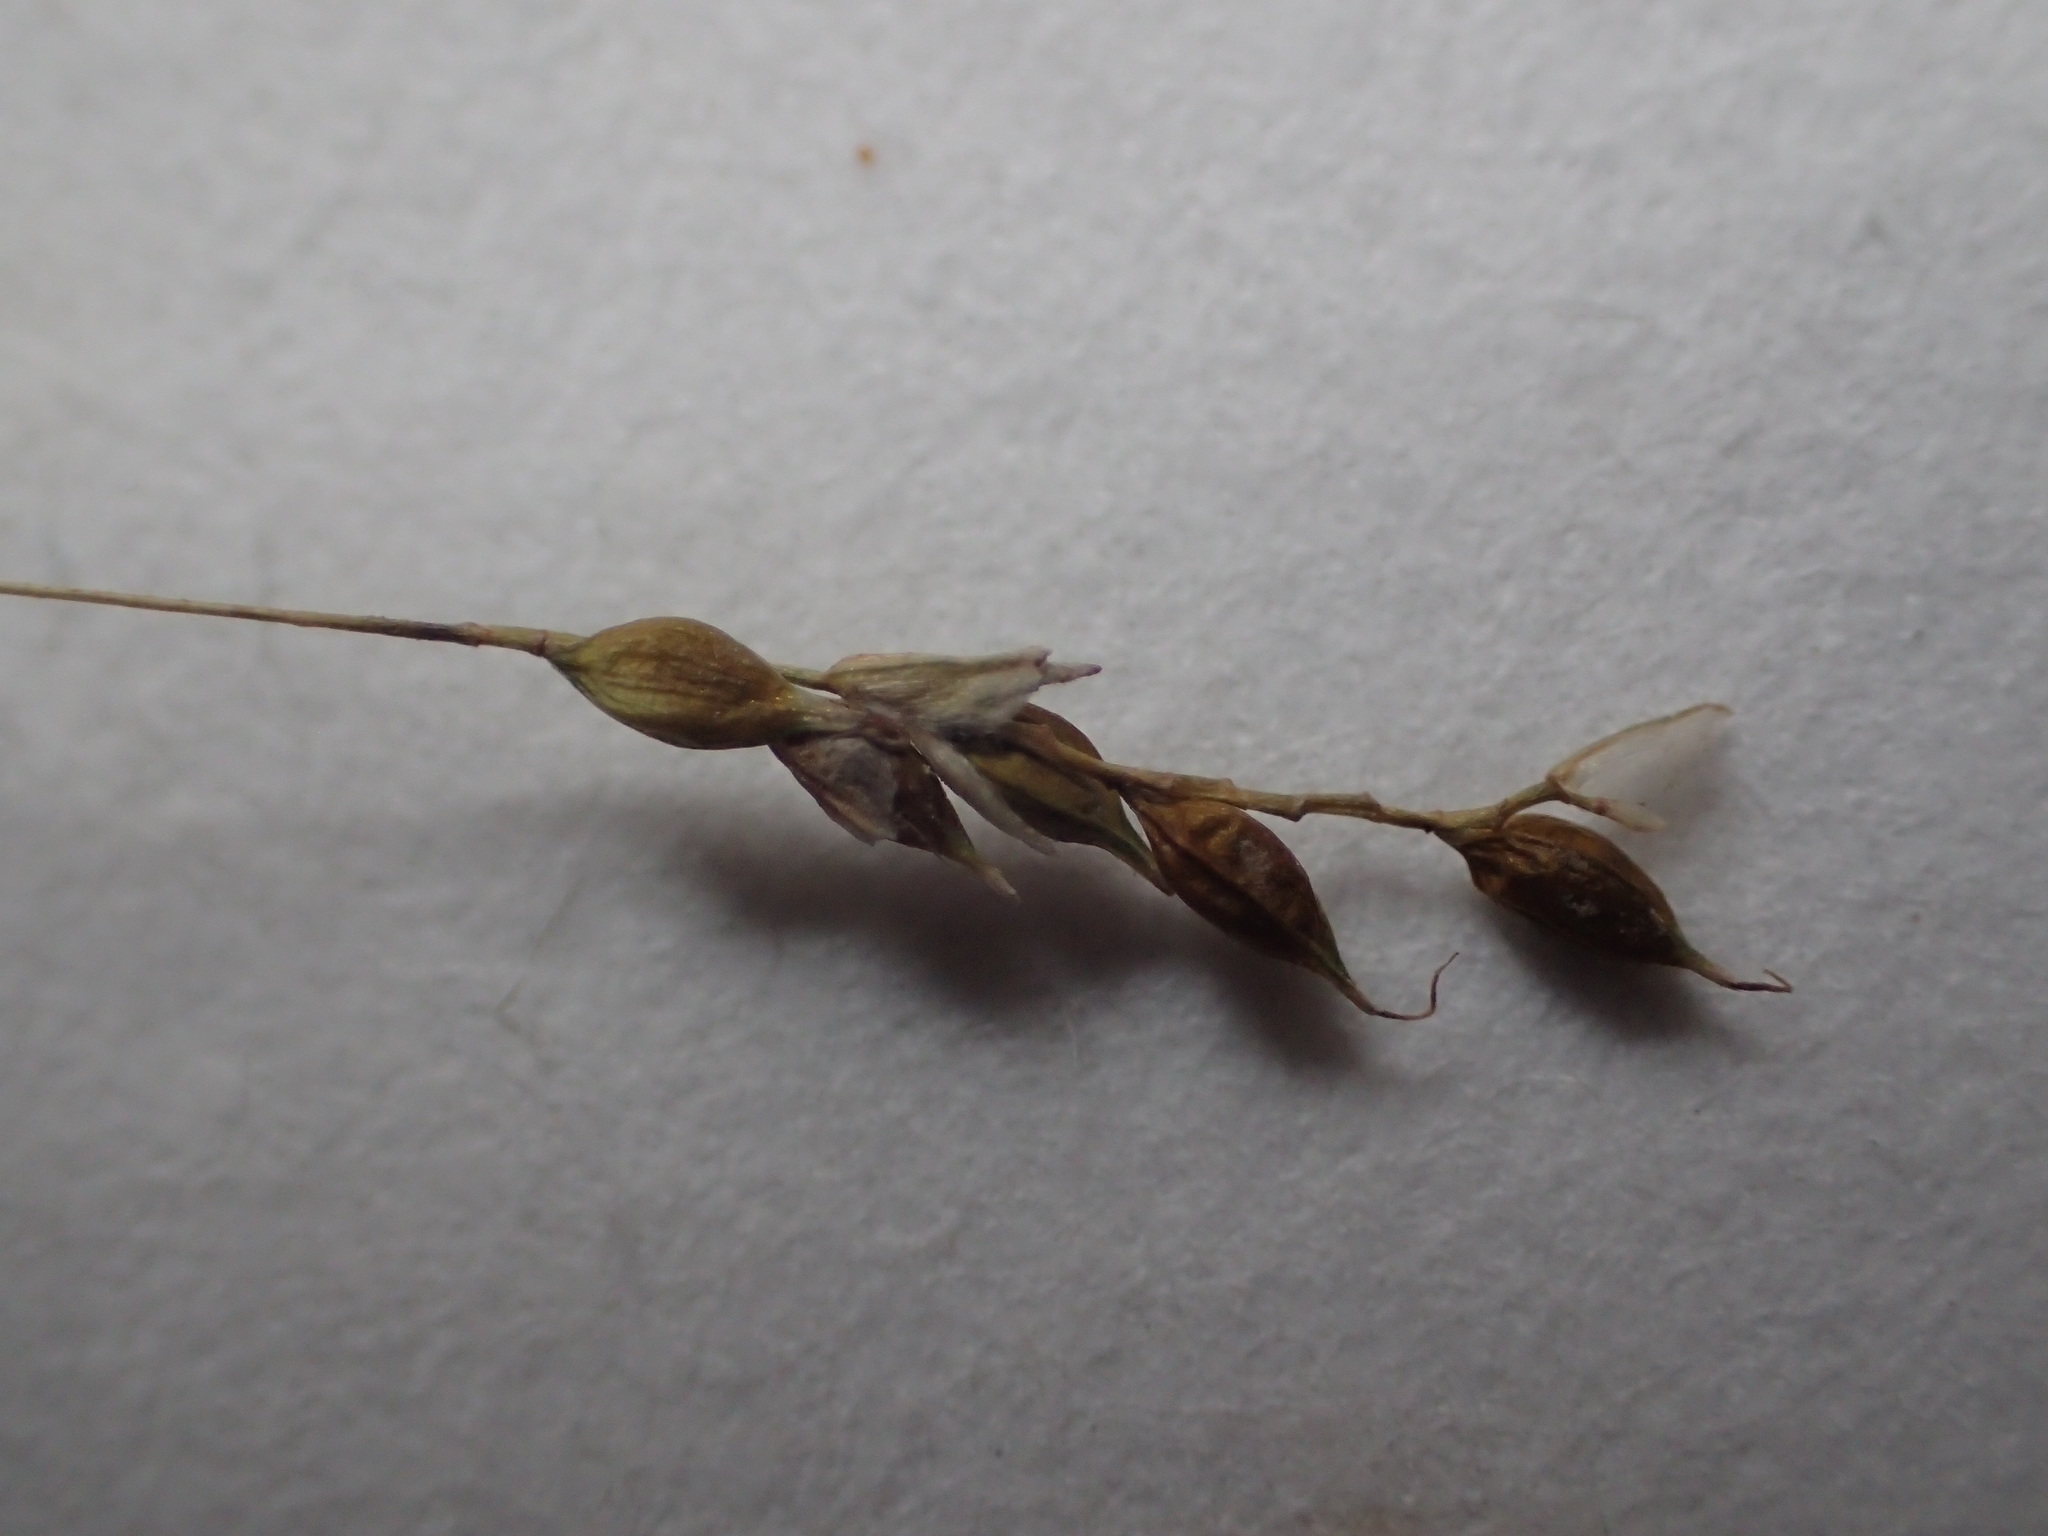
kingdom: Plantae
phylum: Tracheophyta
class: Liliopsida
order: Poales
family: Cyperaceae
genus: Carex
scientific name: Carex capillaris
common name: Hair sedge
